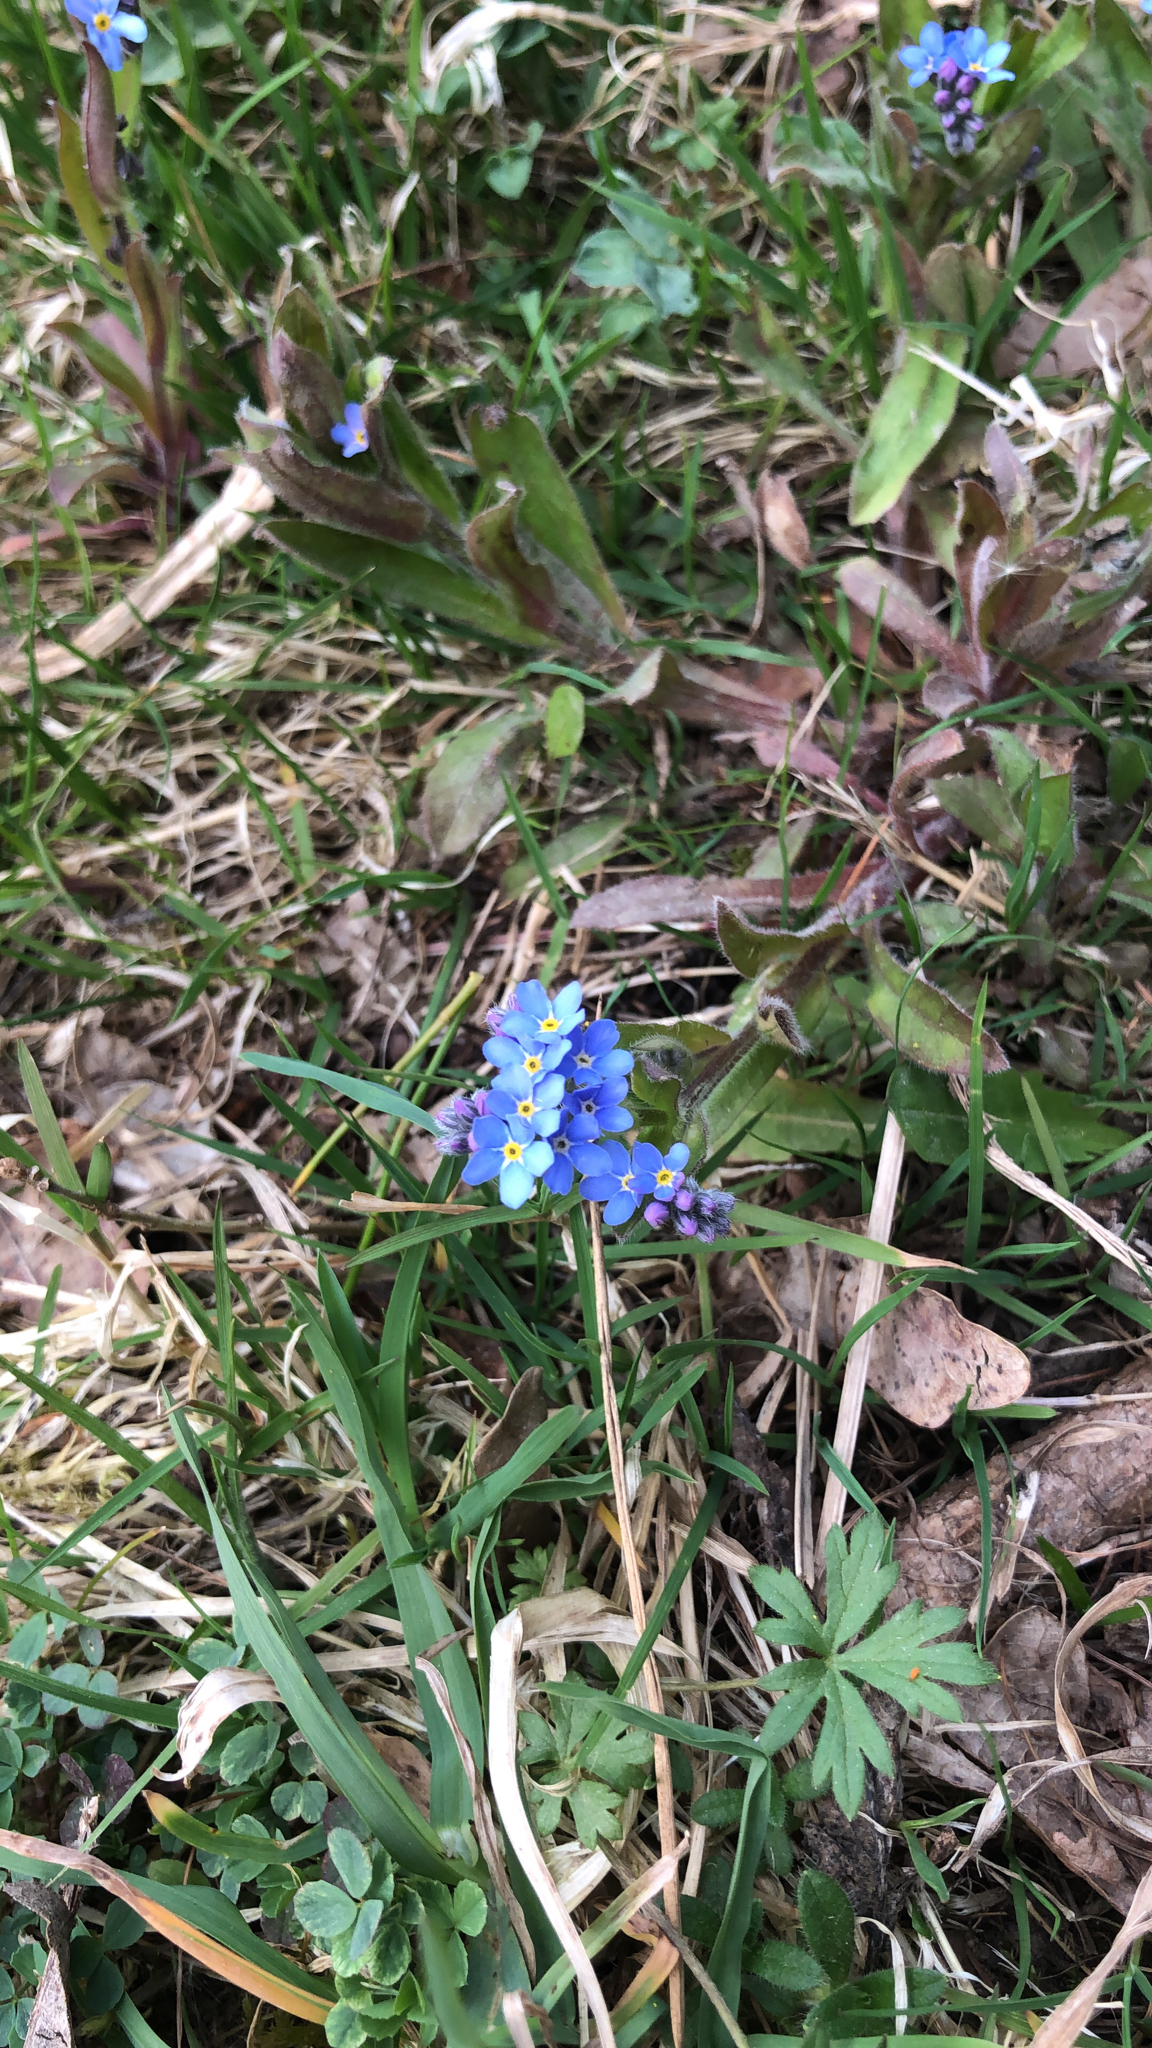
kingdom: Plantae
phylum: Tracheophyta
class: Magnoliopsida
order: Boraginales
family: Boraginaceae
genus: Myosotis
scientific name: Myosotis sylvatica
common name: Wood forget-me-not
